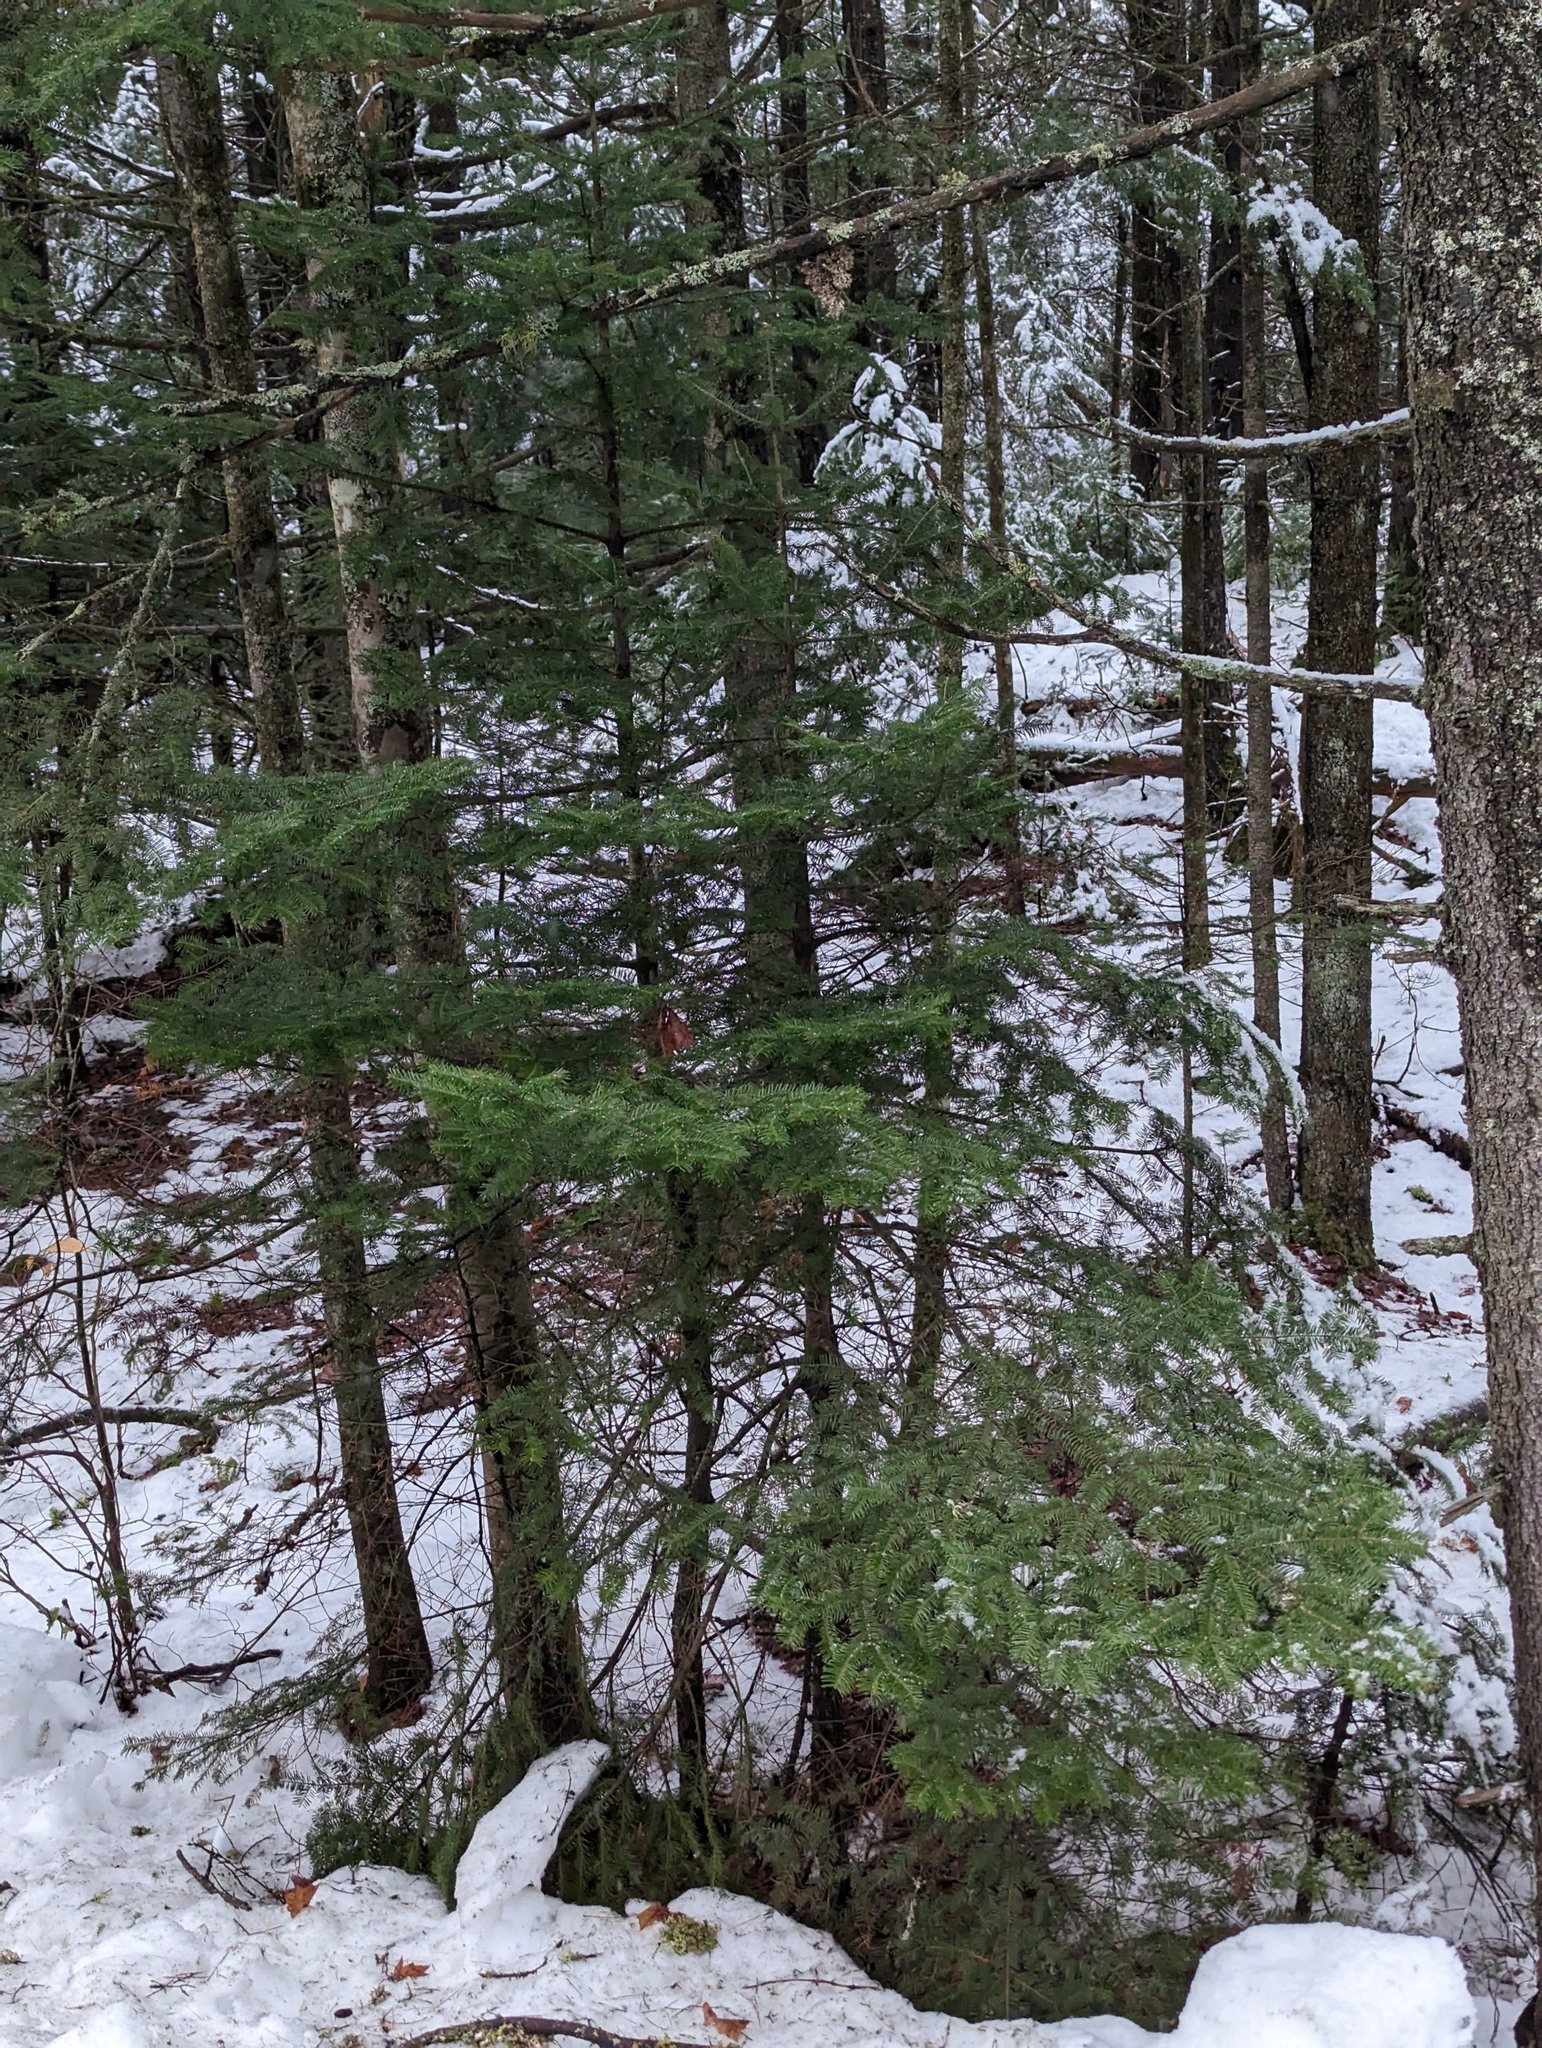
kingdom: Plantae
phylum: Tracheophyta
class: Pinopsida
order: Pinales
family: Pinaceae
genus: Abies
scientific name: Abies balsamea
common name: Balsam fir
